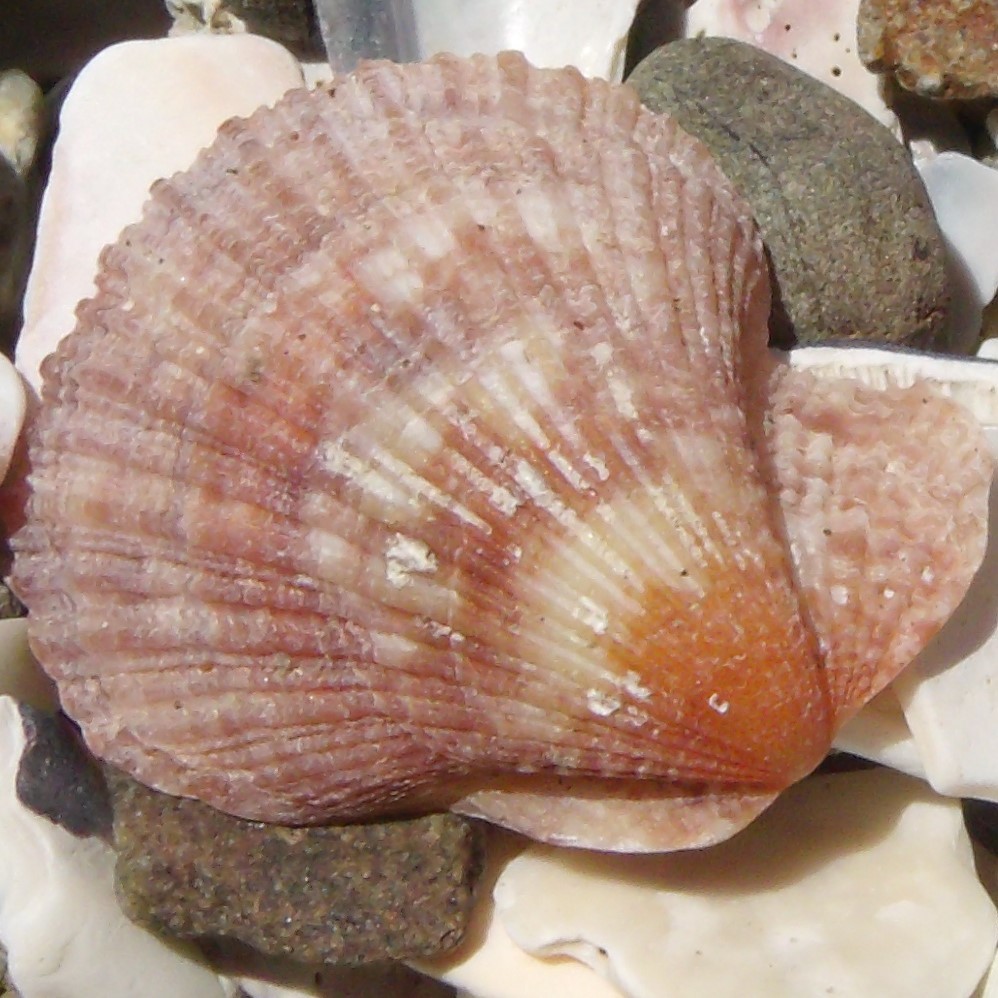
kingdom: Animalia
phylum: Mollusca
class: Bivalvia
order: Pectinida
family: Pectinidae
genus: Talochlamys
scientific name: Talochlamys zelandiae
